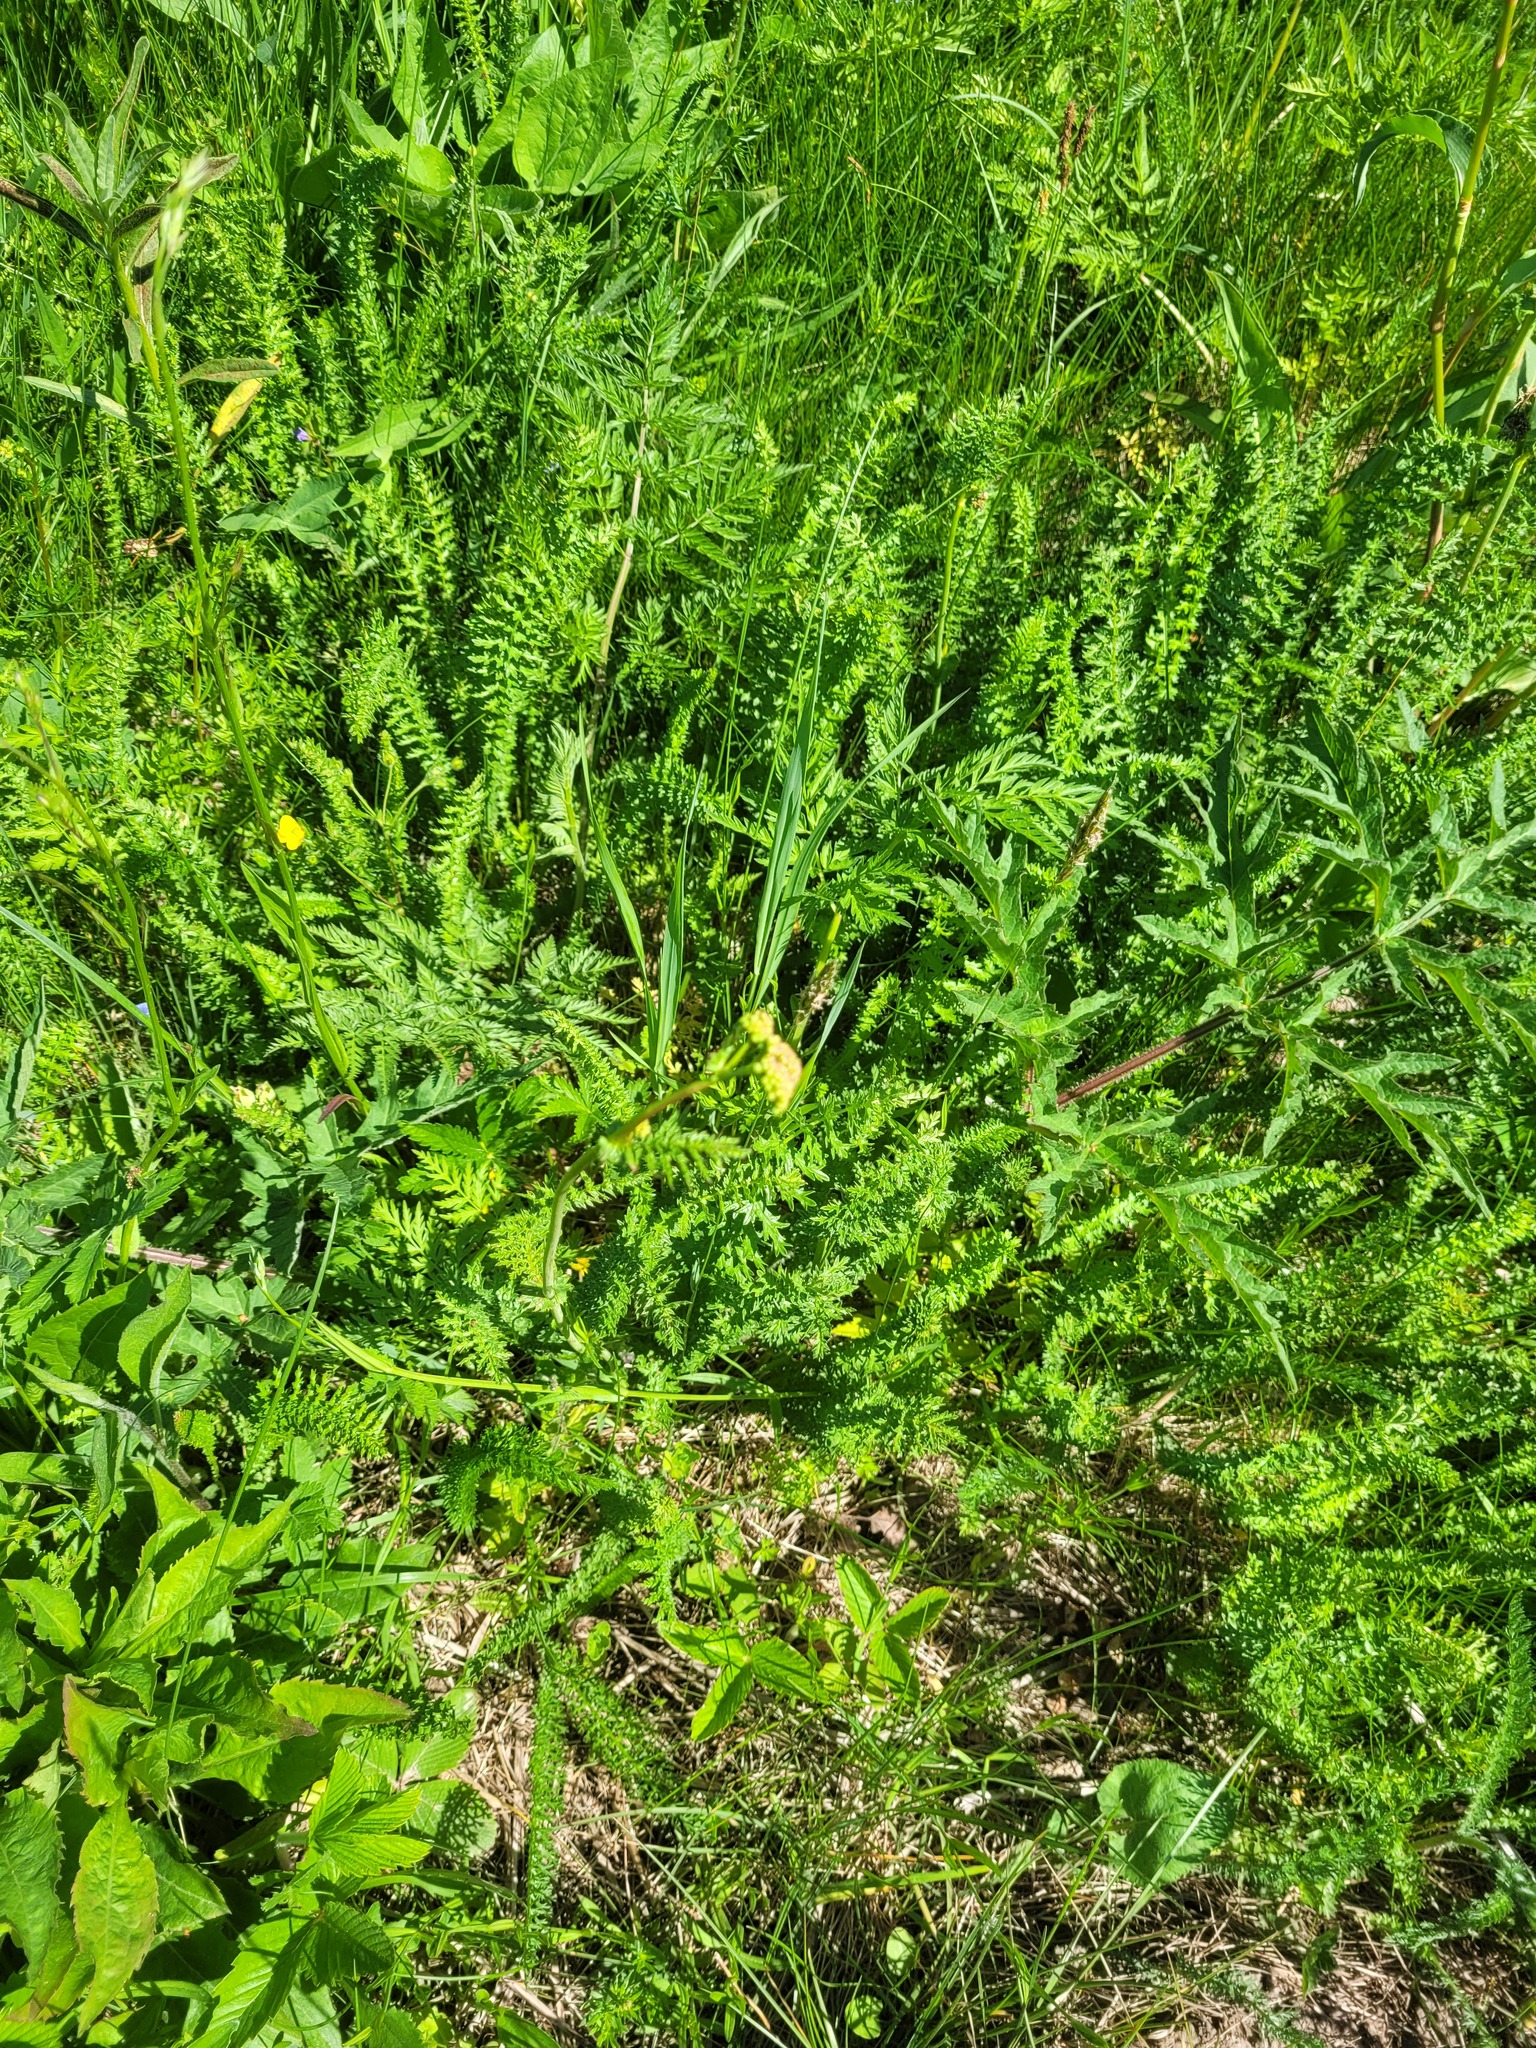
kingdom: Plantae
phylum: Tracheophyta
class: Magnoliopsida
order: Rosales
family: Rosaceae
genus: Filipendula
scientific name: Filipendula vulgaris
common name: Dropwort
